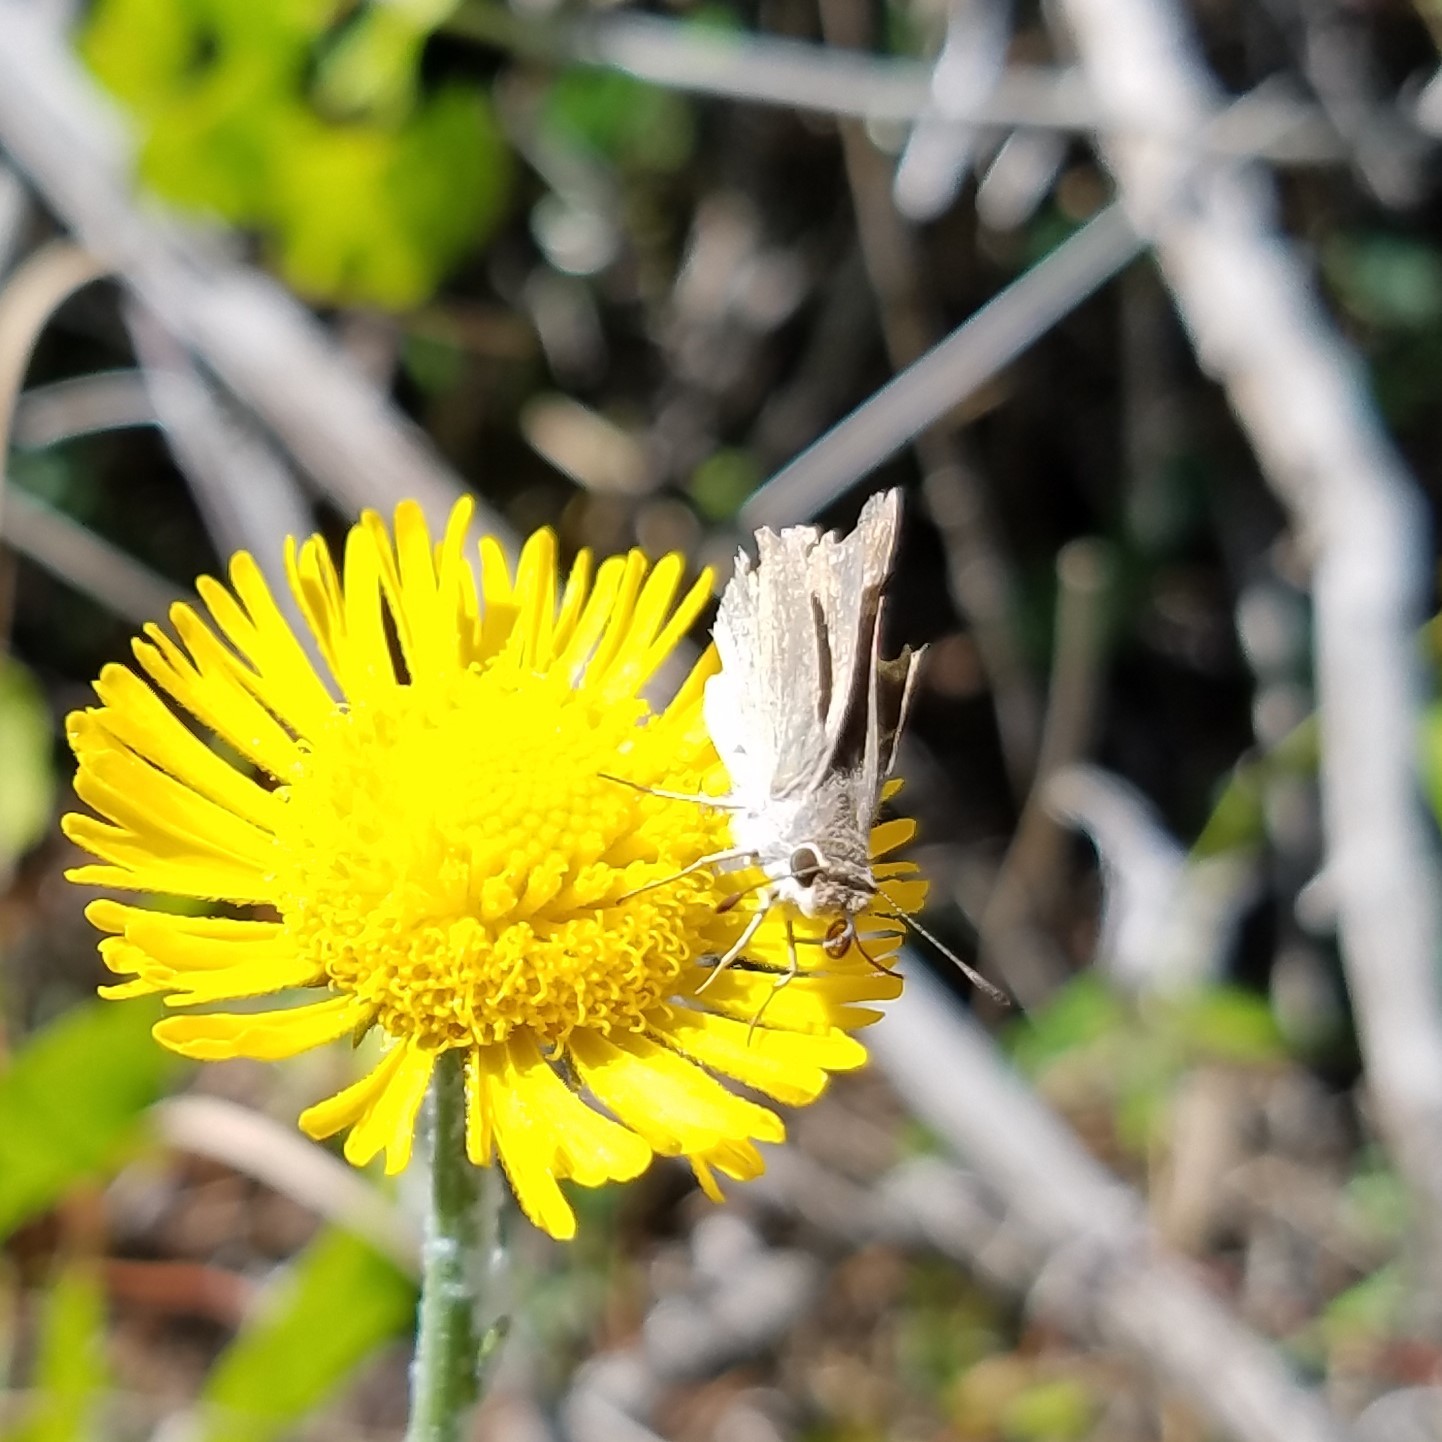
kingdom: Animalia
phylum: Arthropoda
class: Insecta
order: Lepidoptera
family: Hesperiidae
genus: Lerodea
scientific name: Lerodea eufala
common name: Eufala skipper
